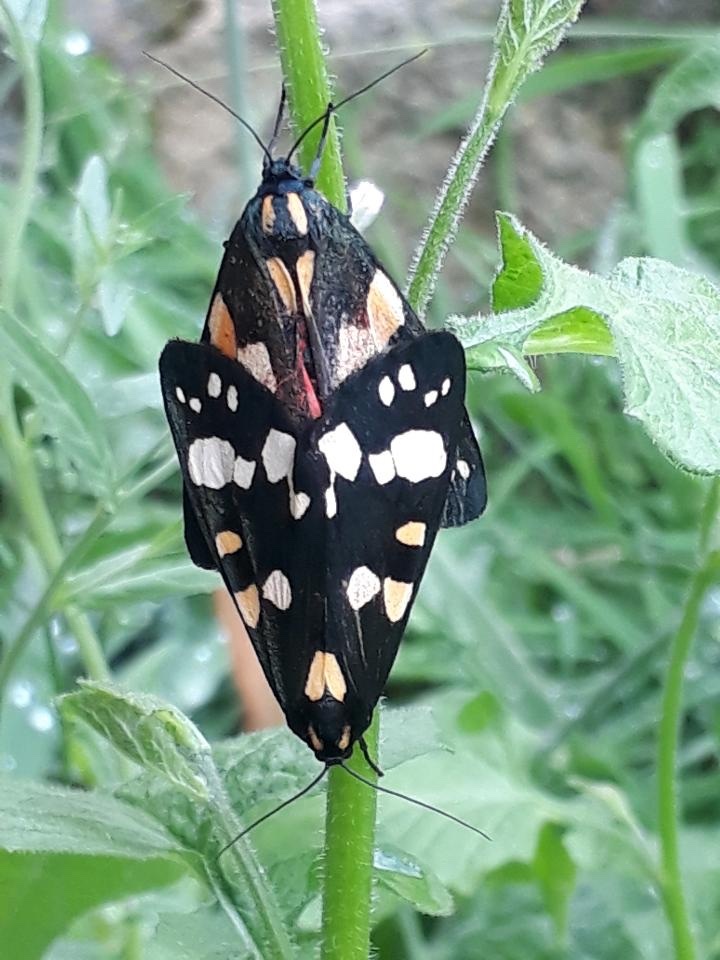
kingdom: Animalia
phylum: Arthropoda
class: Insecta
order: Lepidoptera
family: Erebidae
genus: Callimorpha
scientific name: Callimorpha dominula
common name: Scarlet tiger
